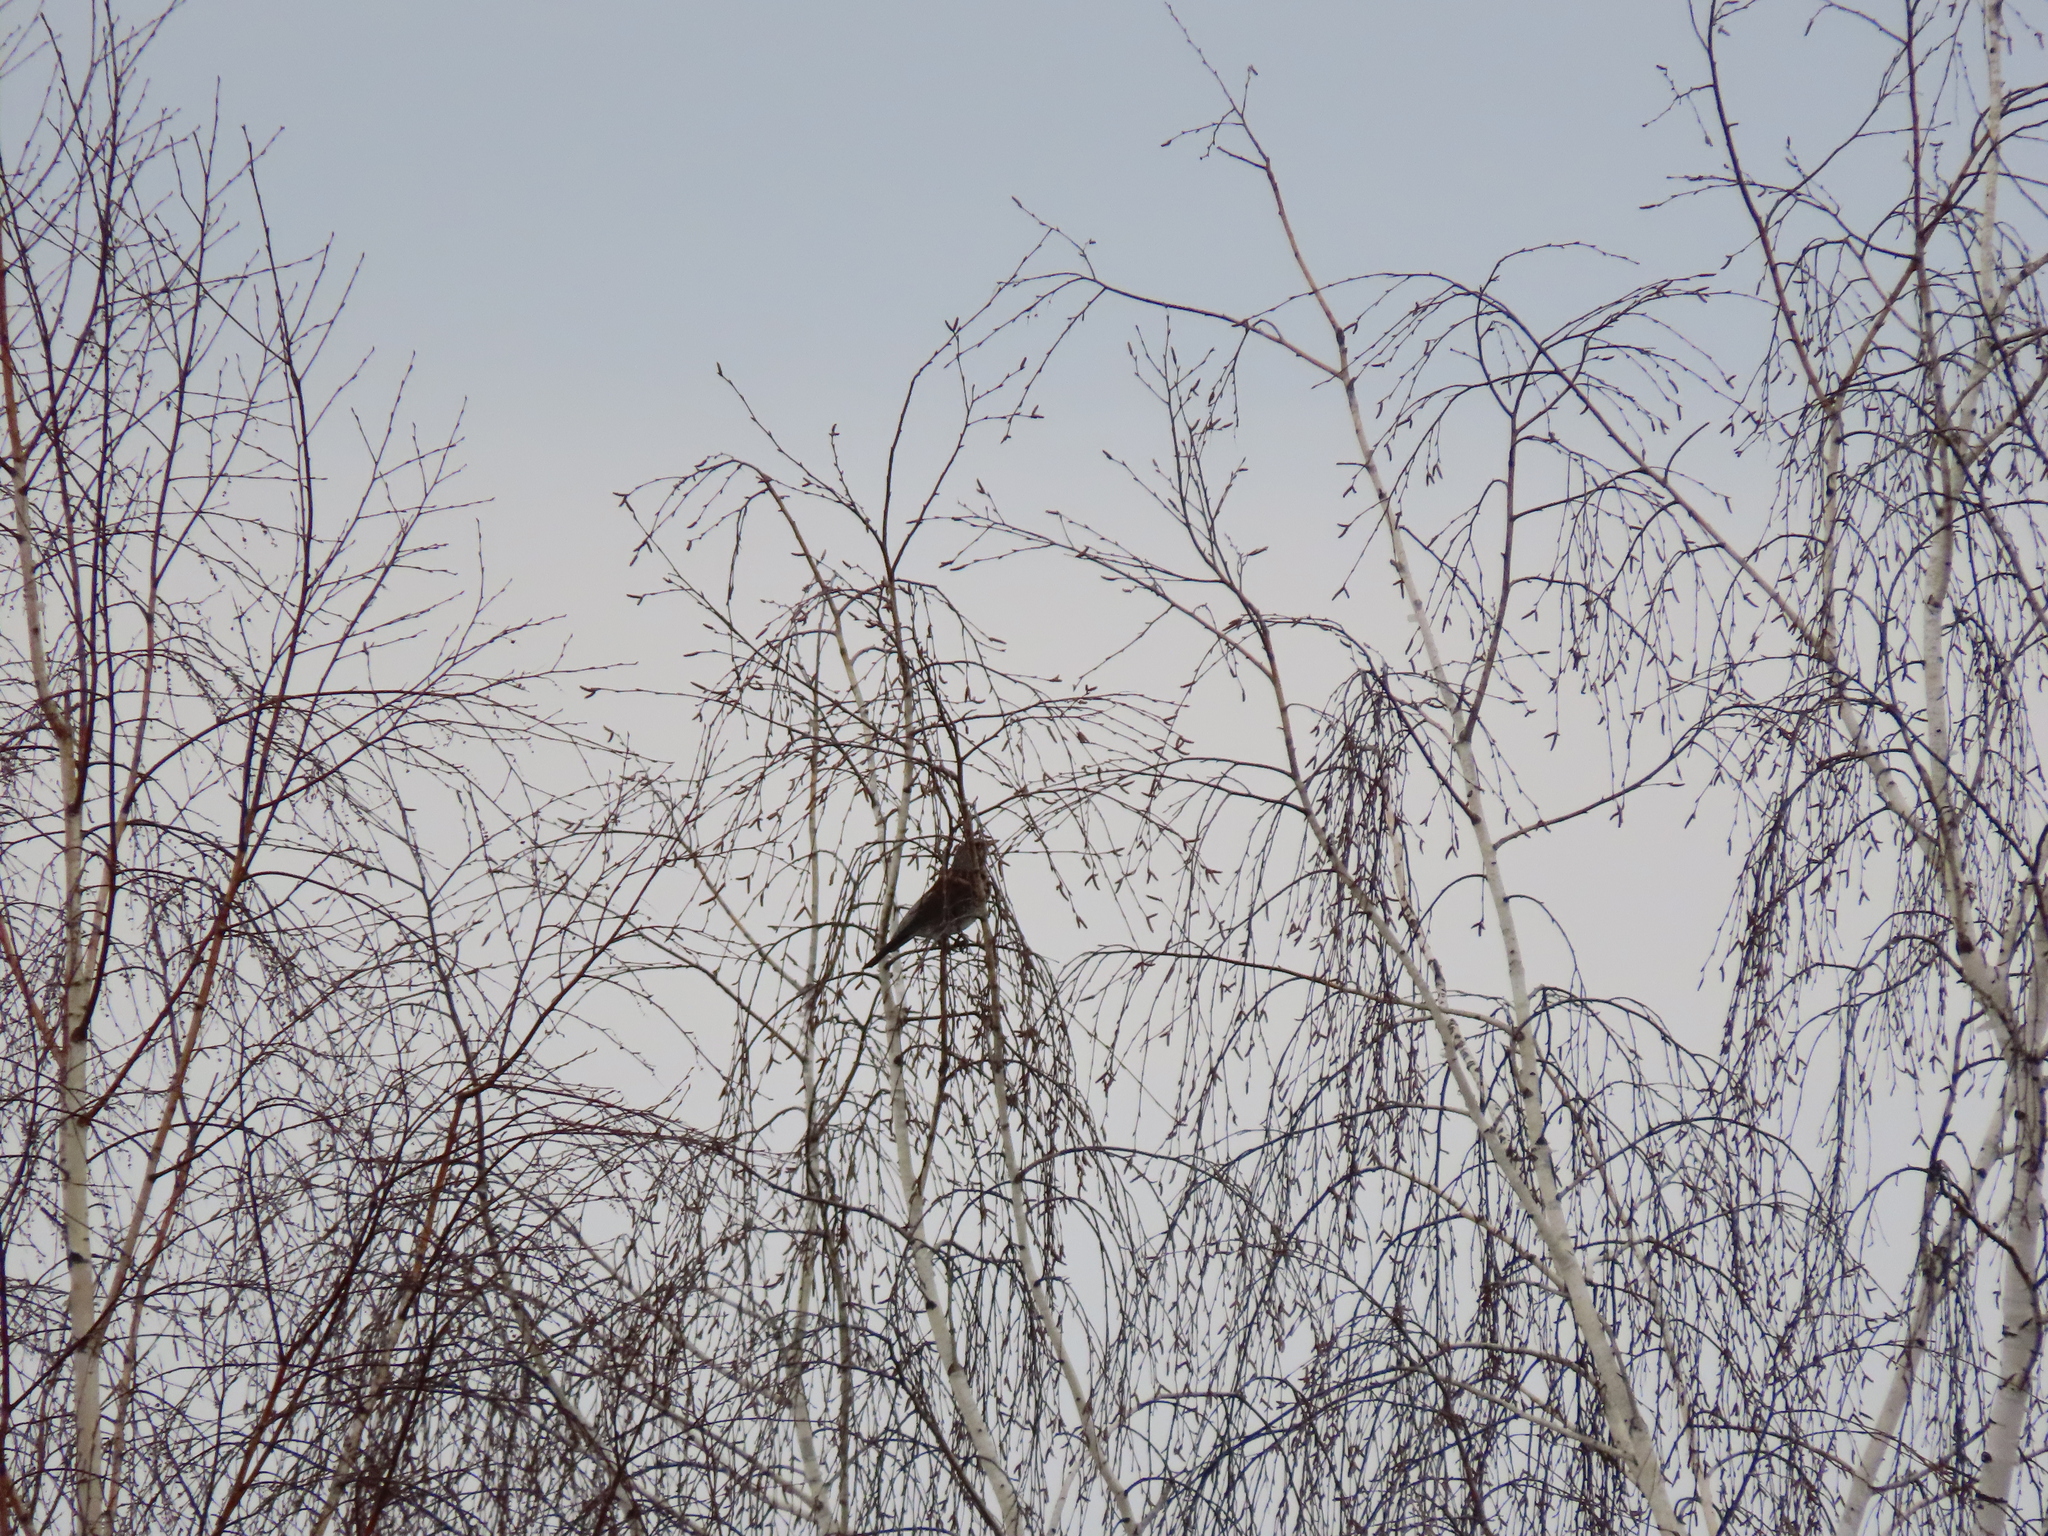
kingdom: Animalia
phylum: Chordata
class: Aves
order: Passeriformes
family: Turdidae
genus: Turdus
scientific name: Turdus pilaris
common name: Fieldfare
